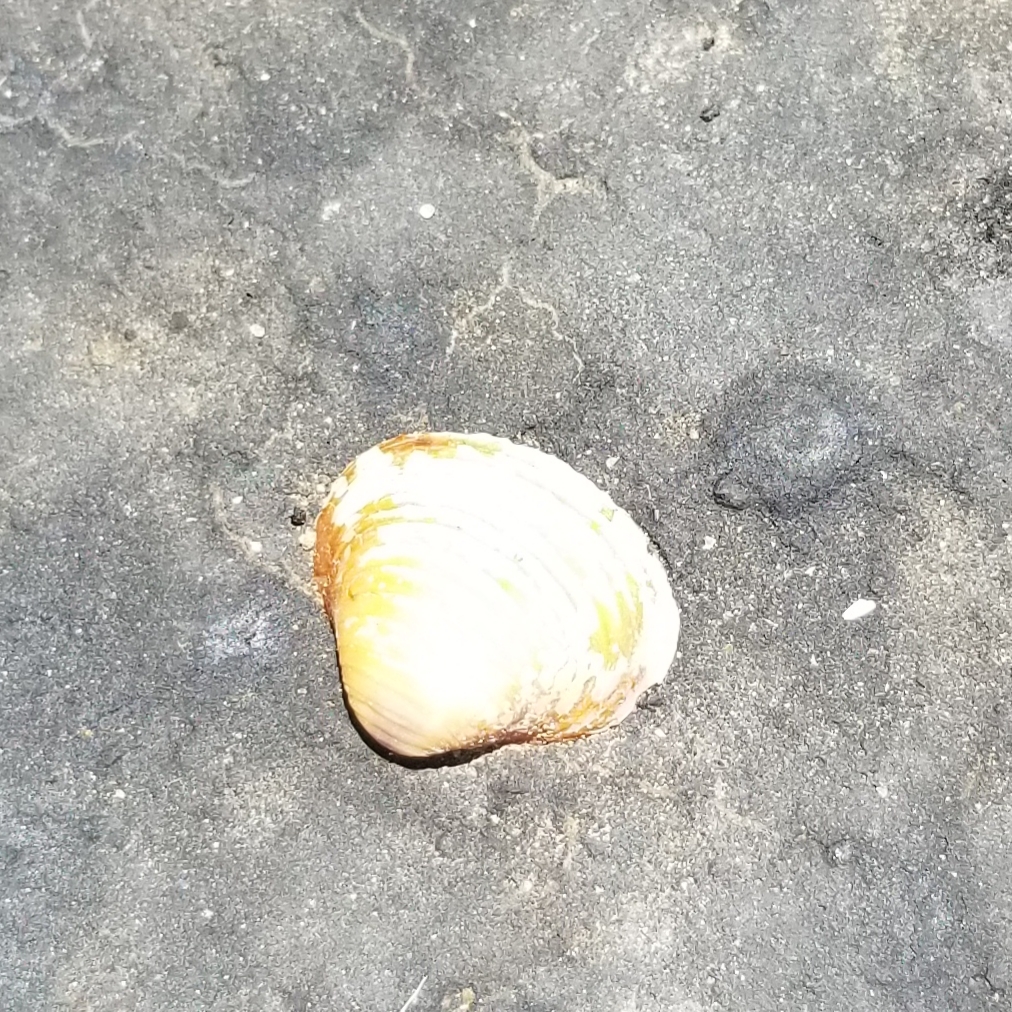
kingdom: Animalia
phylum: Mollusca
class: Bivalvia
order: Venerida
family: Cyrenidae
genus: Corbicula
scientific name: Corbicula fluminea
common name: Asian clam
